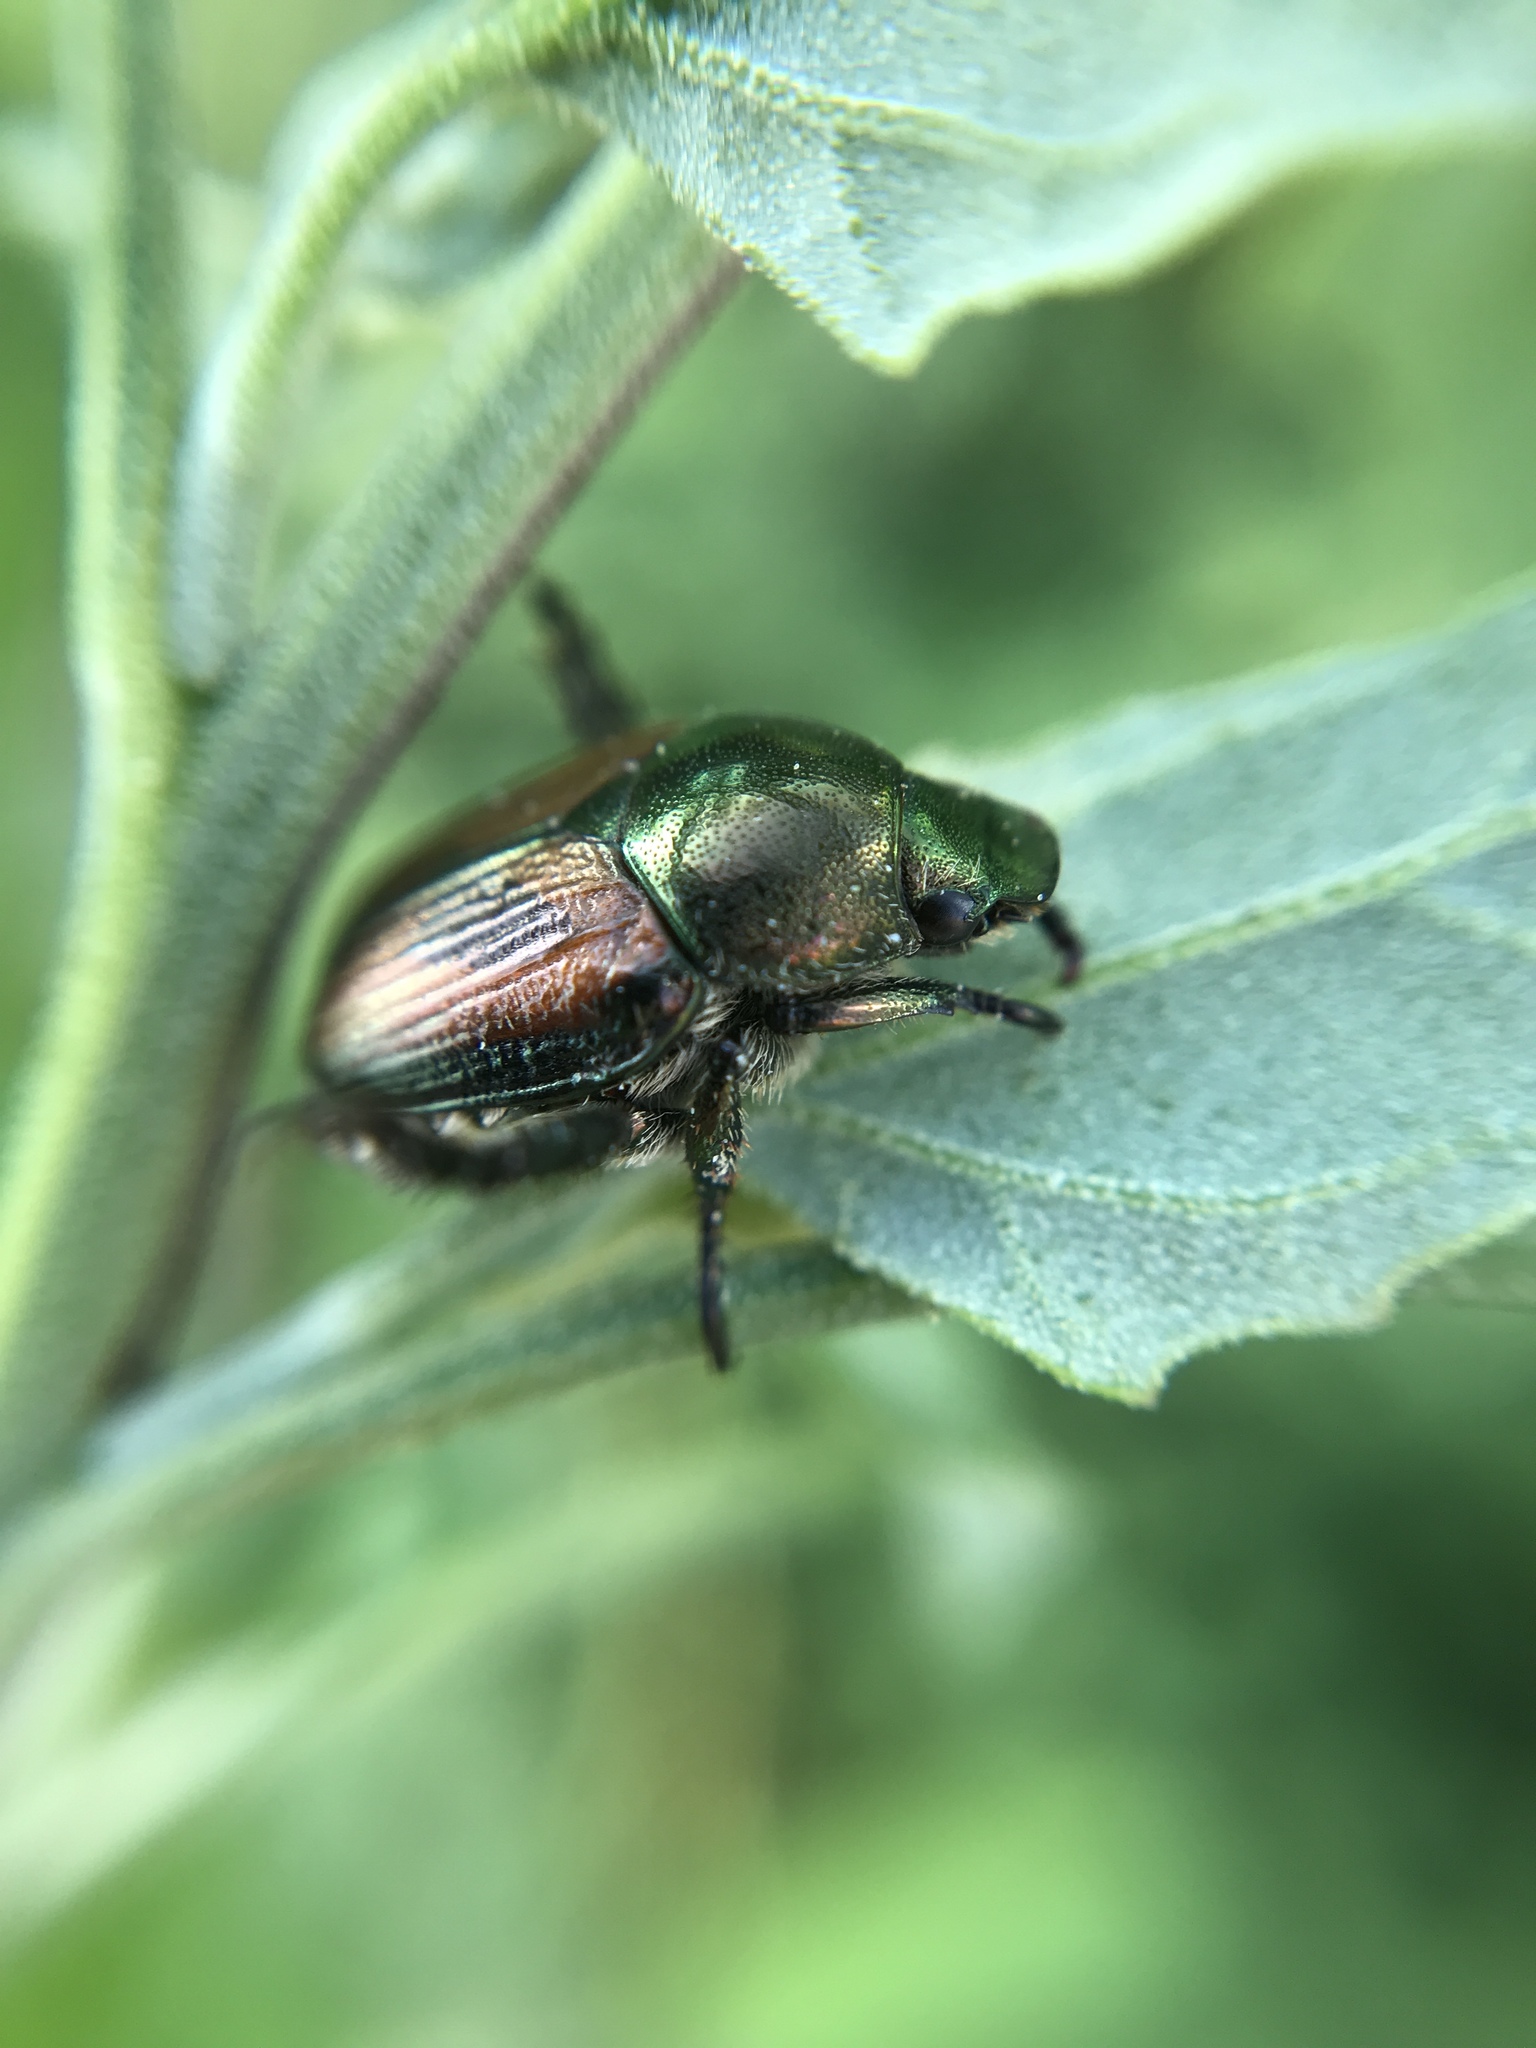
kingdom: Animalia
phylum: Arthropoda
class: Insecta
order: Coleoptera
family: Scarabaeidae
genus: Popillia
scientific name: Popillia japonica
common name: Japanese beetle
